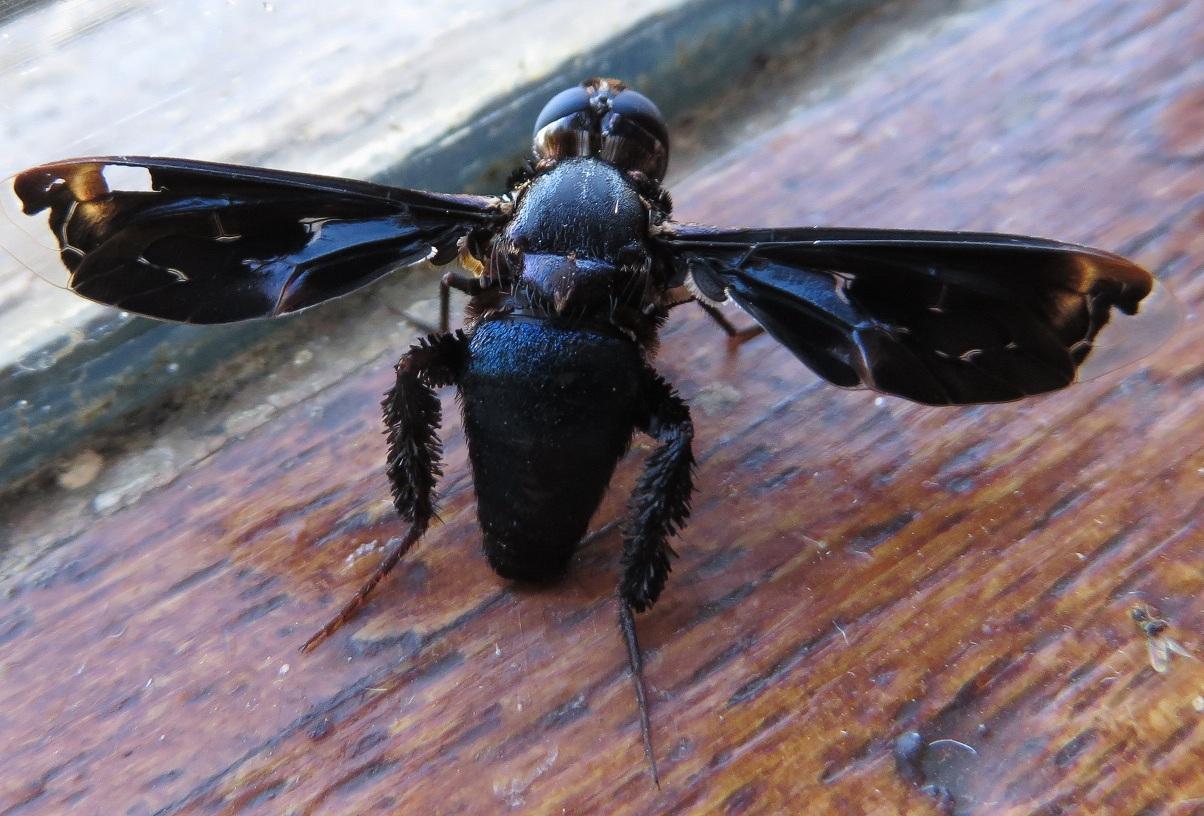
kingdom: Animalia
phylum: Arthropoda
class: Insecta
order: Diptera
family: Bombyliidae
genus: Pterobates
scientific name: Pterobates apicalis
